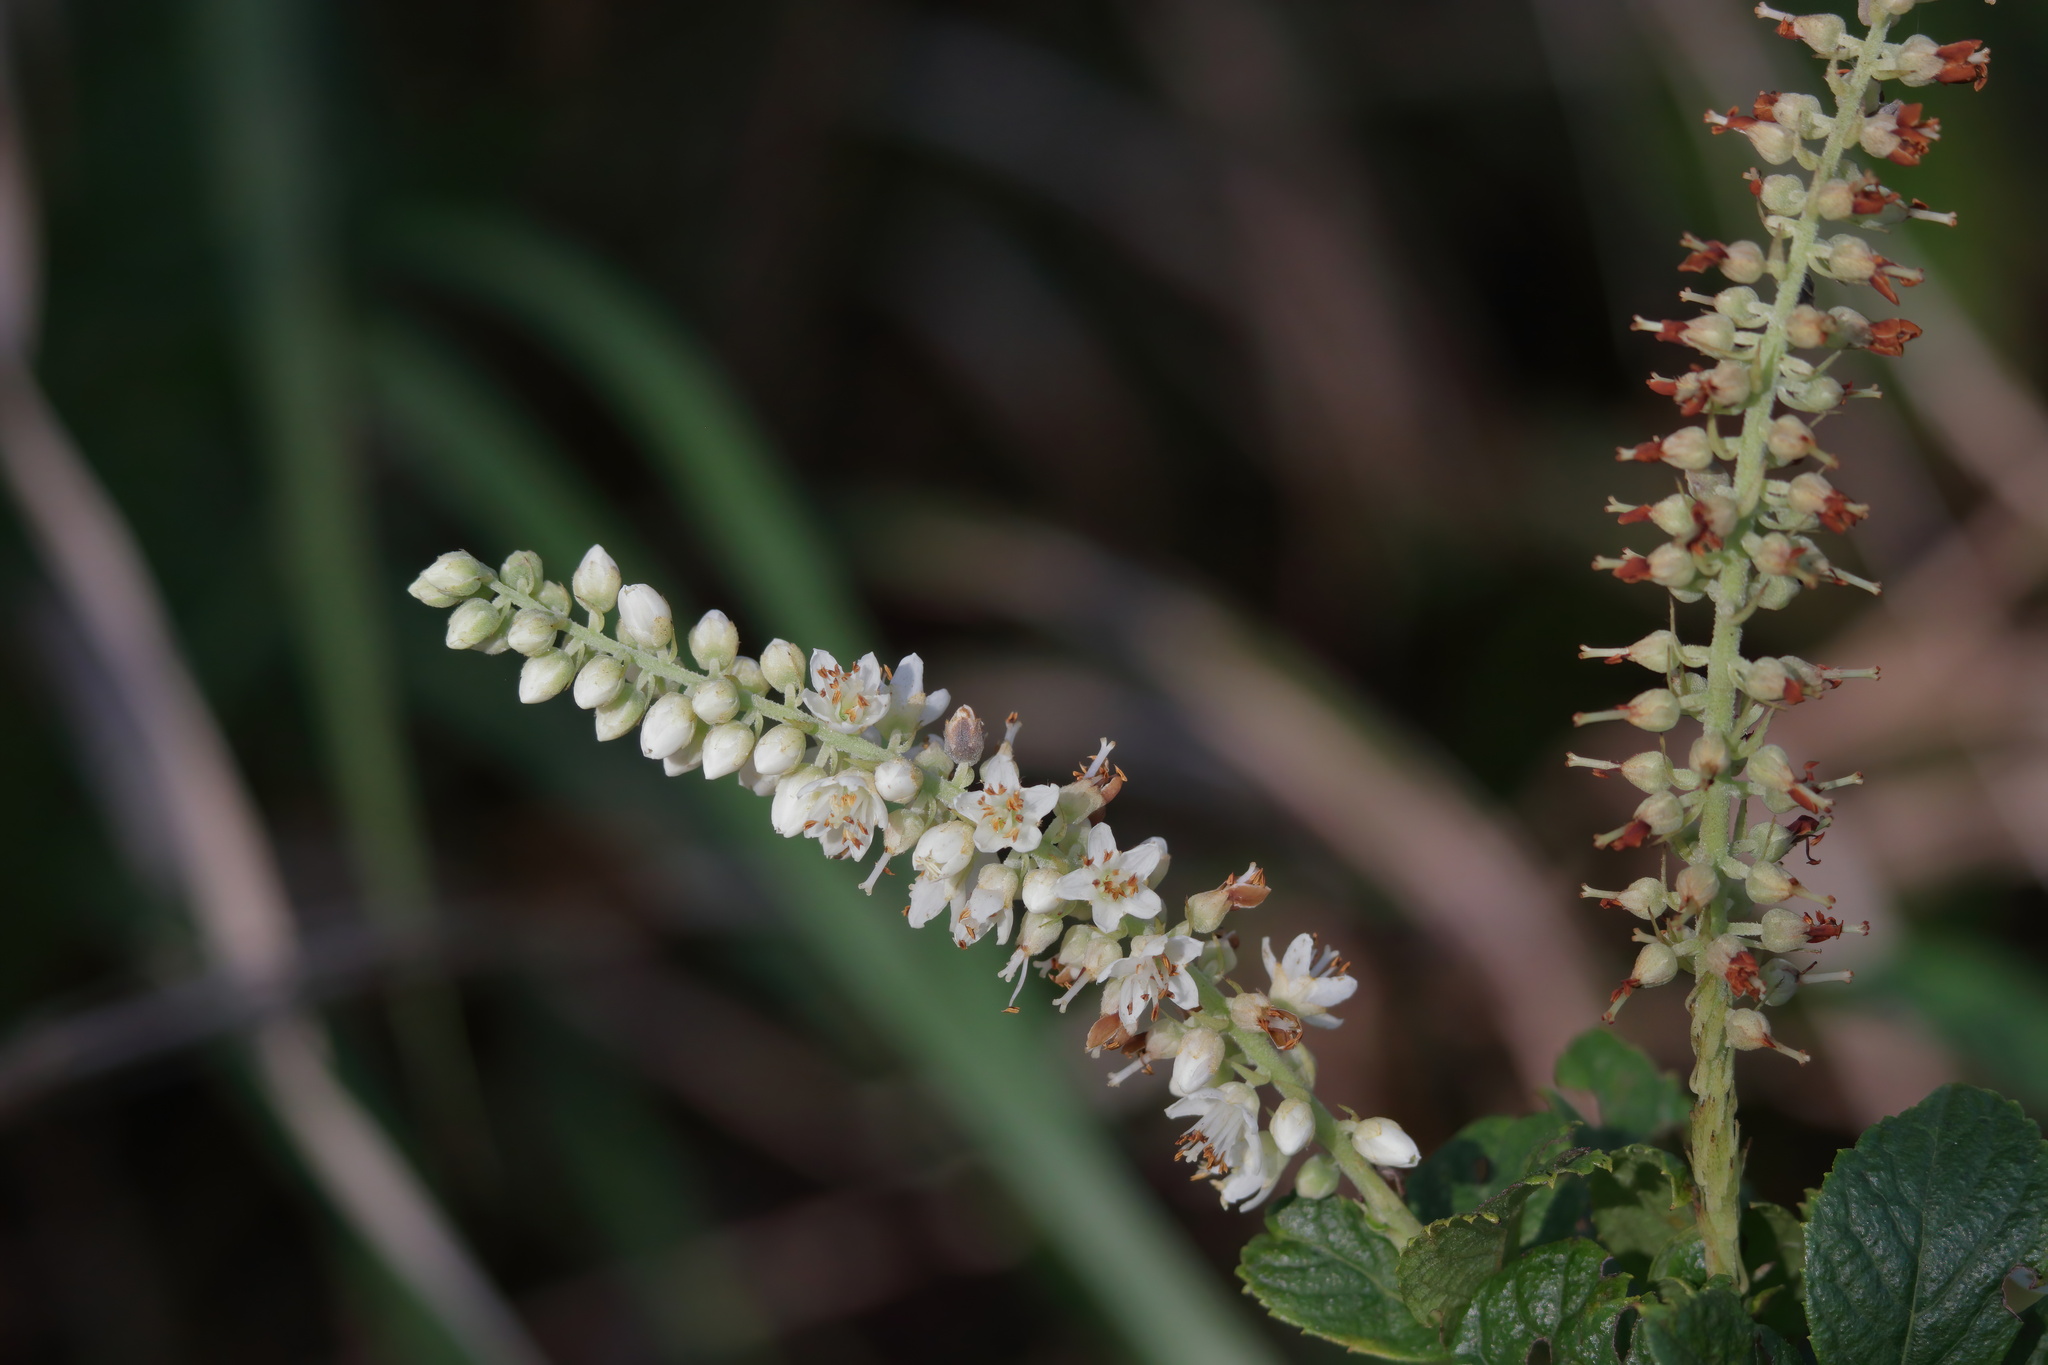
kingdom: Plantae
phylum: Tracheophyta
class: Magnoliopsida
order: Ericales
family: Clethraceae
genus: Clethra
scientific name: Clethra alnifolia
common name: Sweet pepperbush
